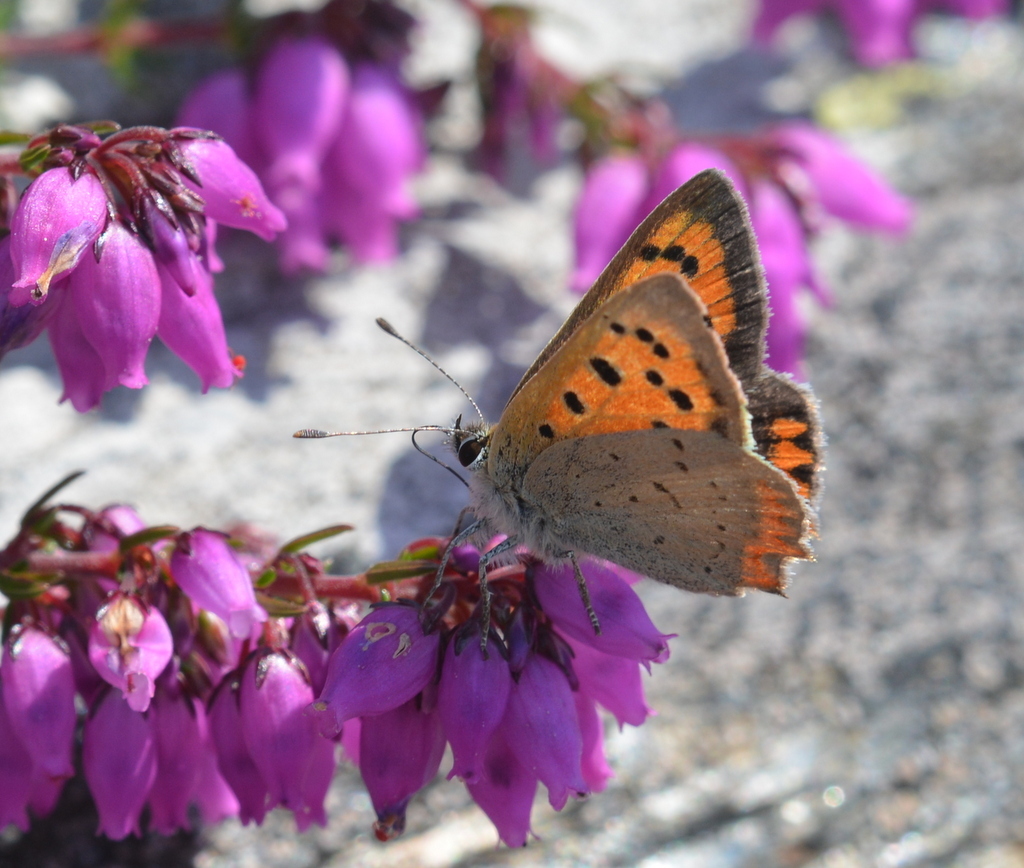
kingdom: Animalia
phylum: Arthropoda
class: Insecta
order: Lepidoptera
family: Lycaenidae
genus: Lycaena
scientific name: Lycaena phlaeas
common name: Small copper
